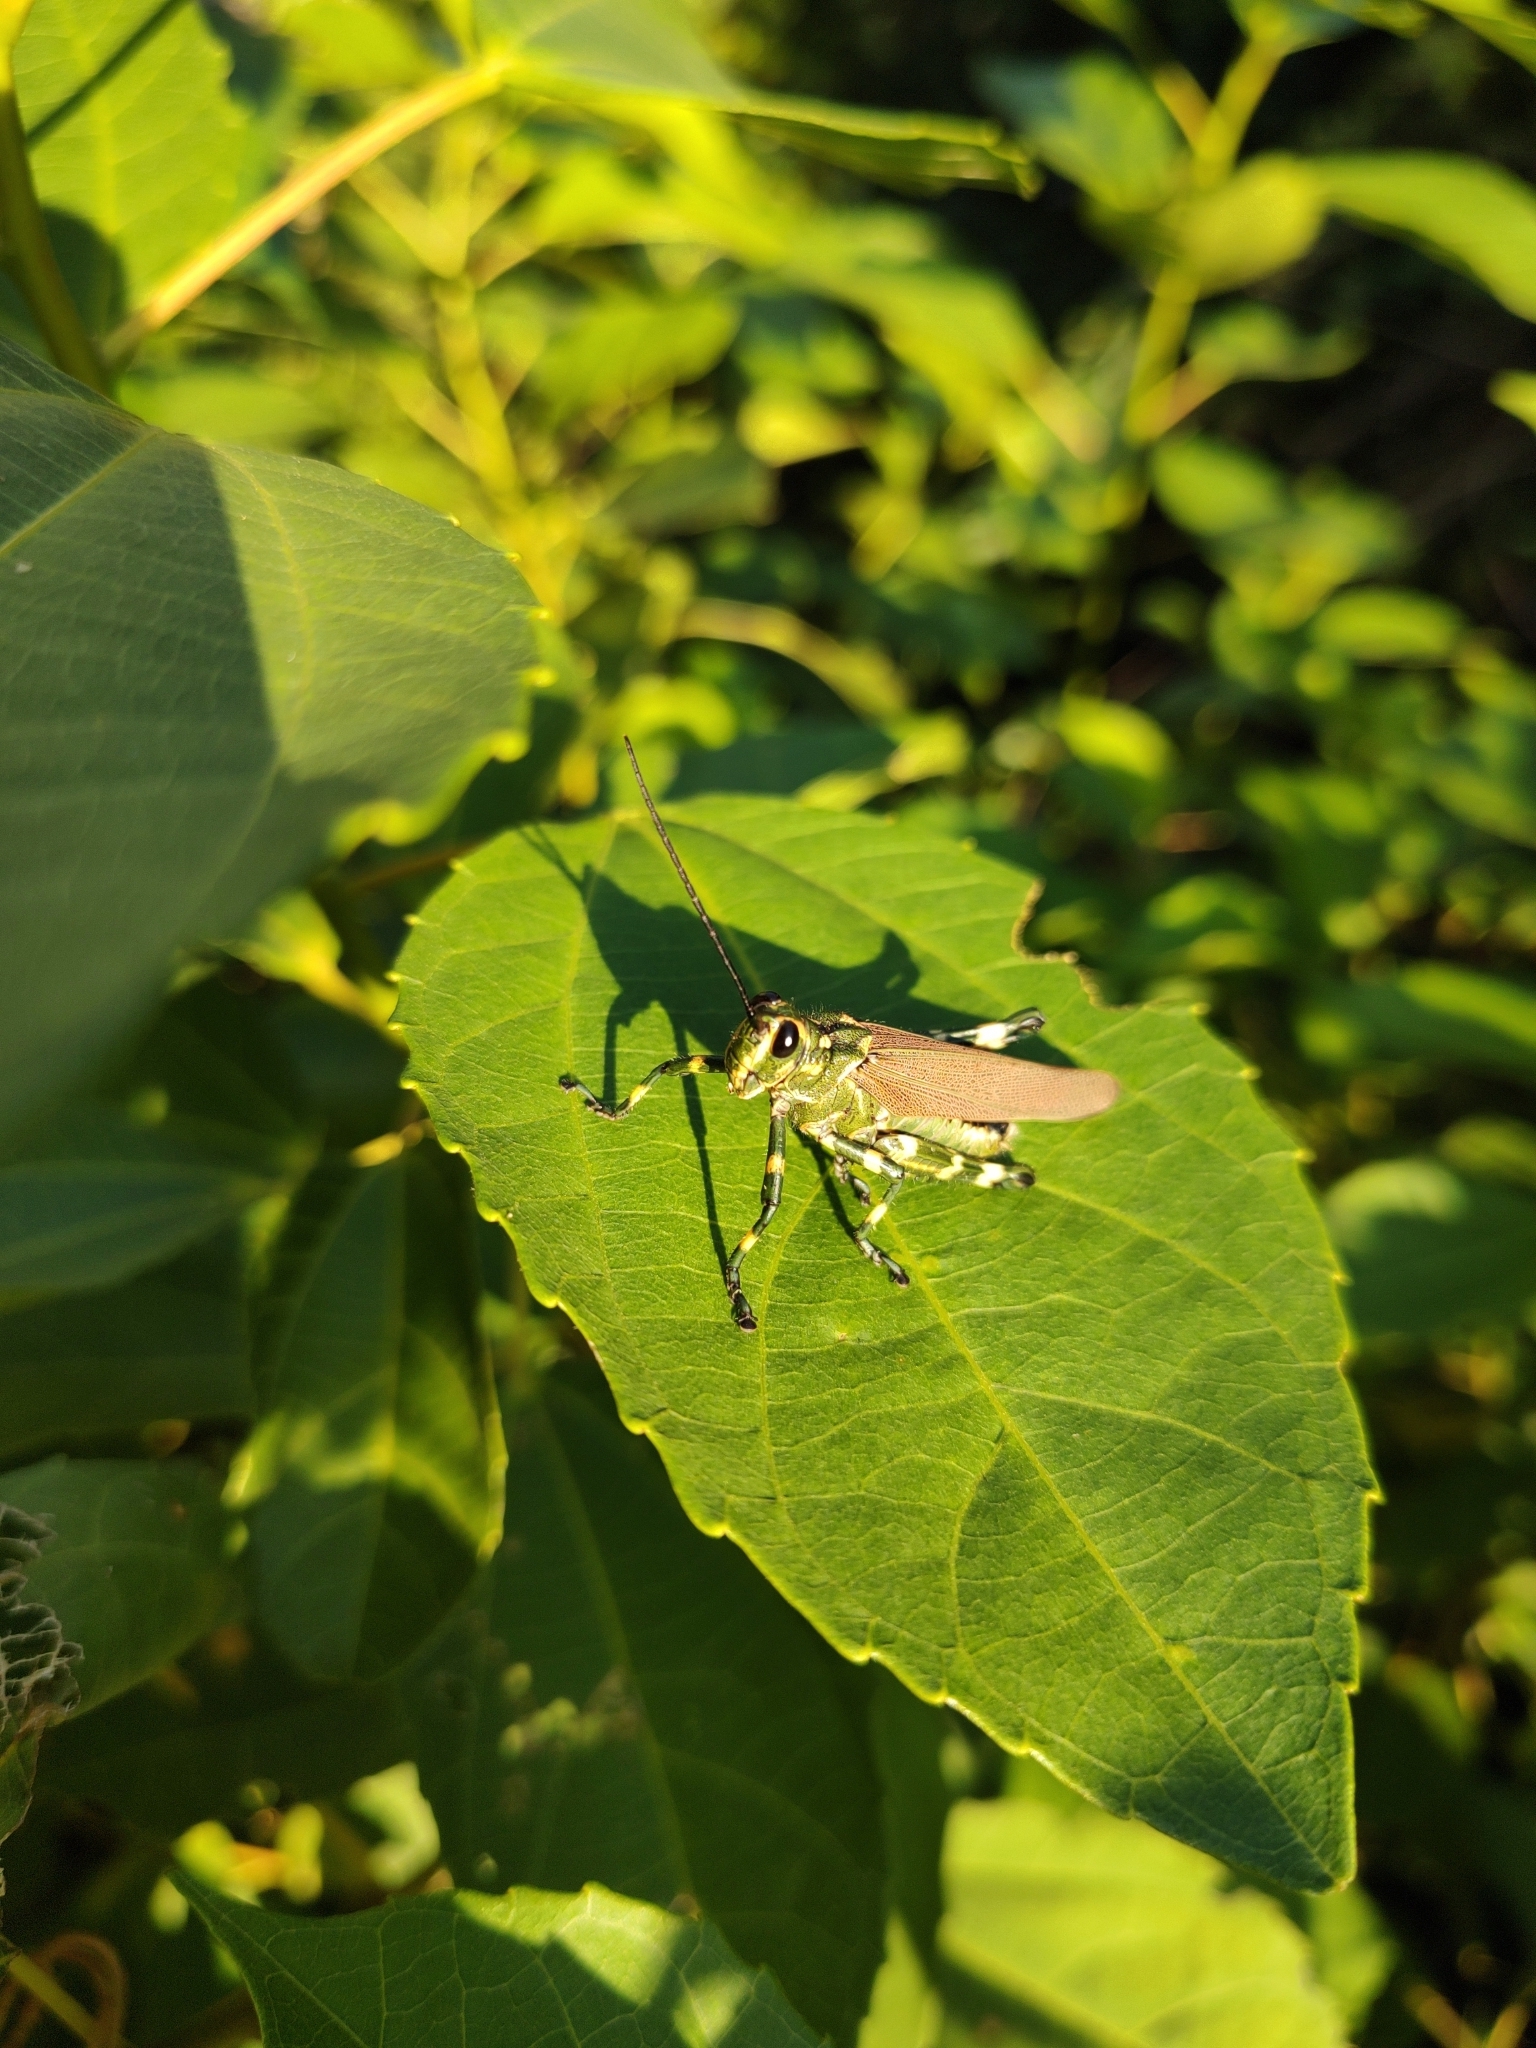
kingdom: Animalia
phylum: Arthropoda
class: Insecta
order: Orthoptera
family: Romaleidae
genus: Chromacris
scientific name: Chromacris speciosa
